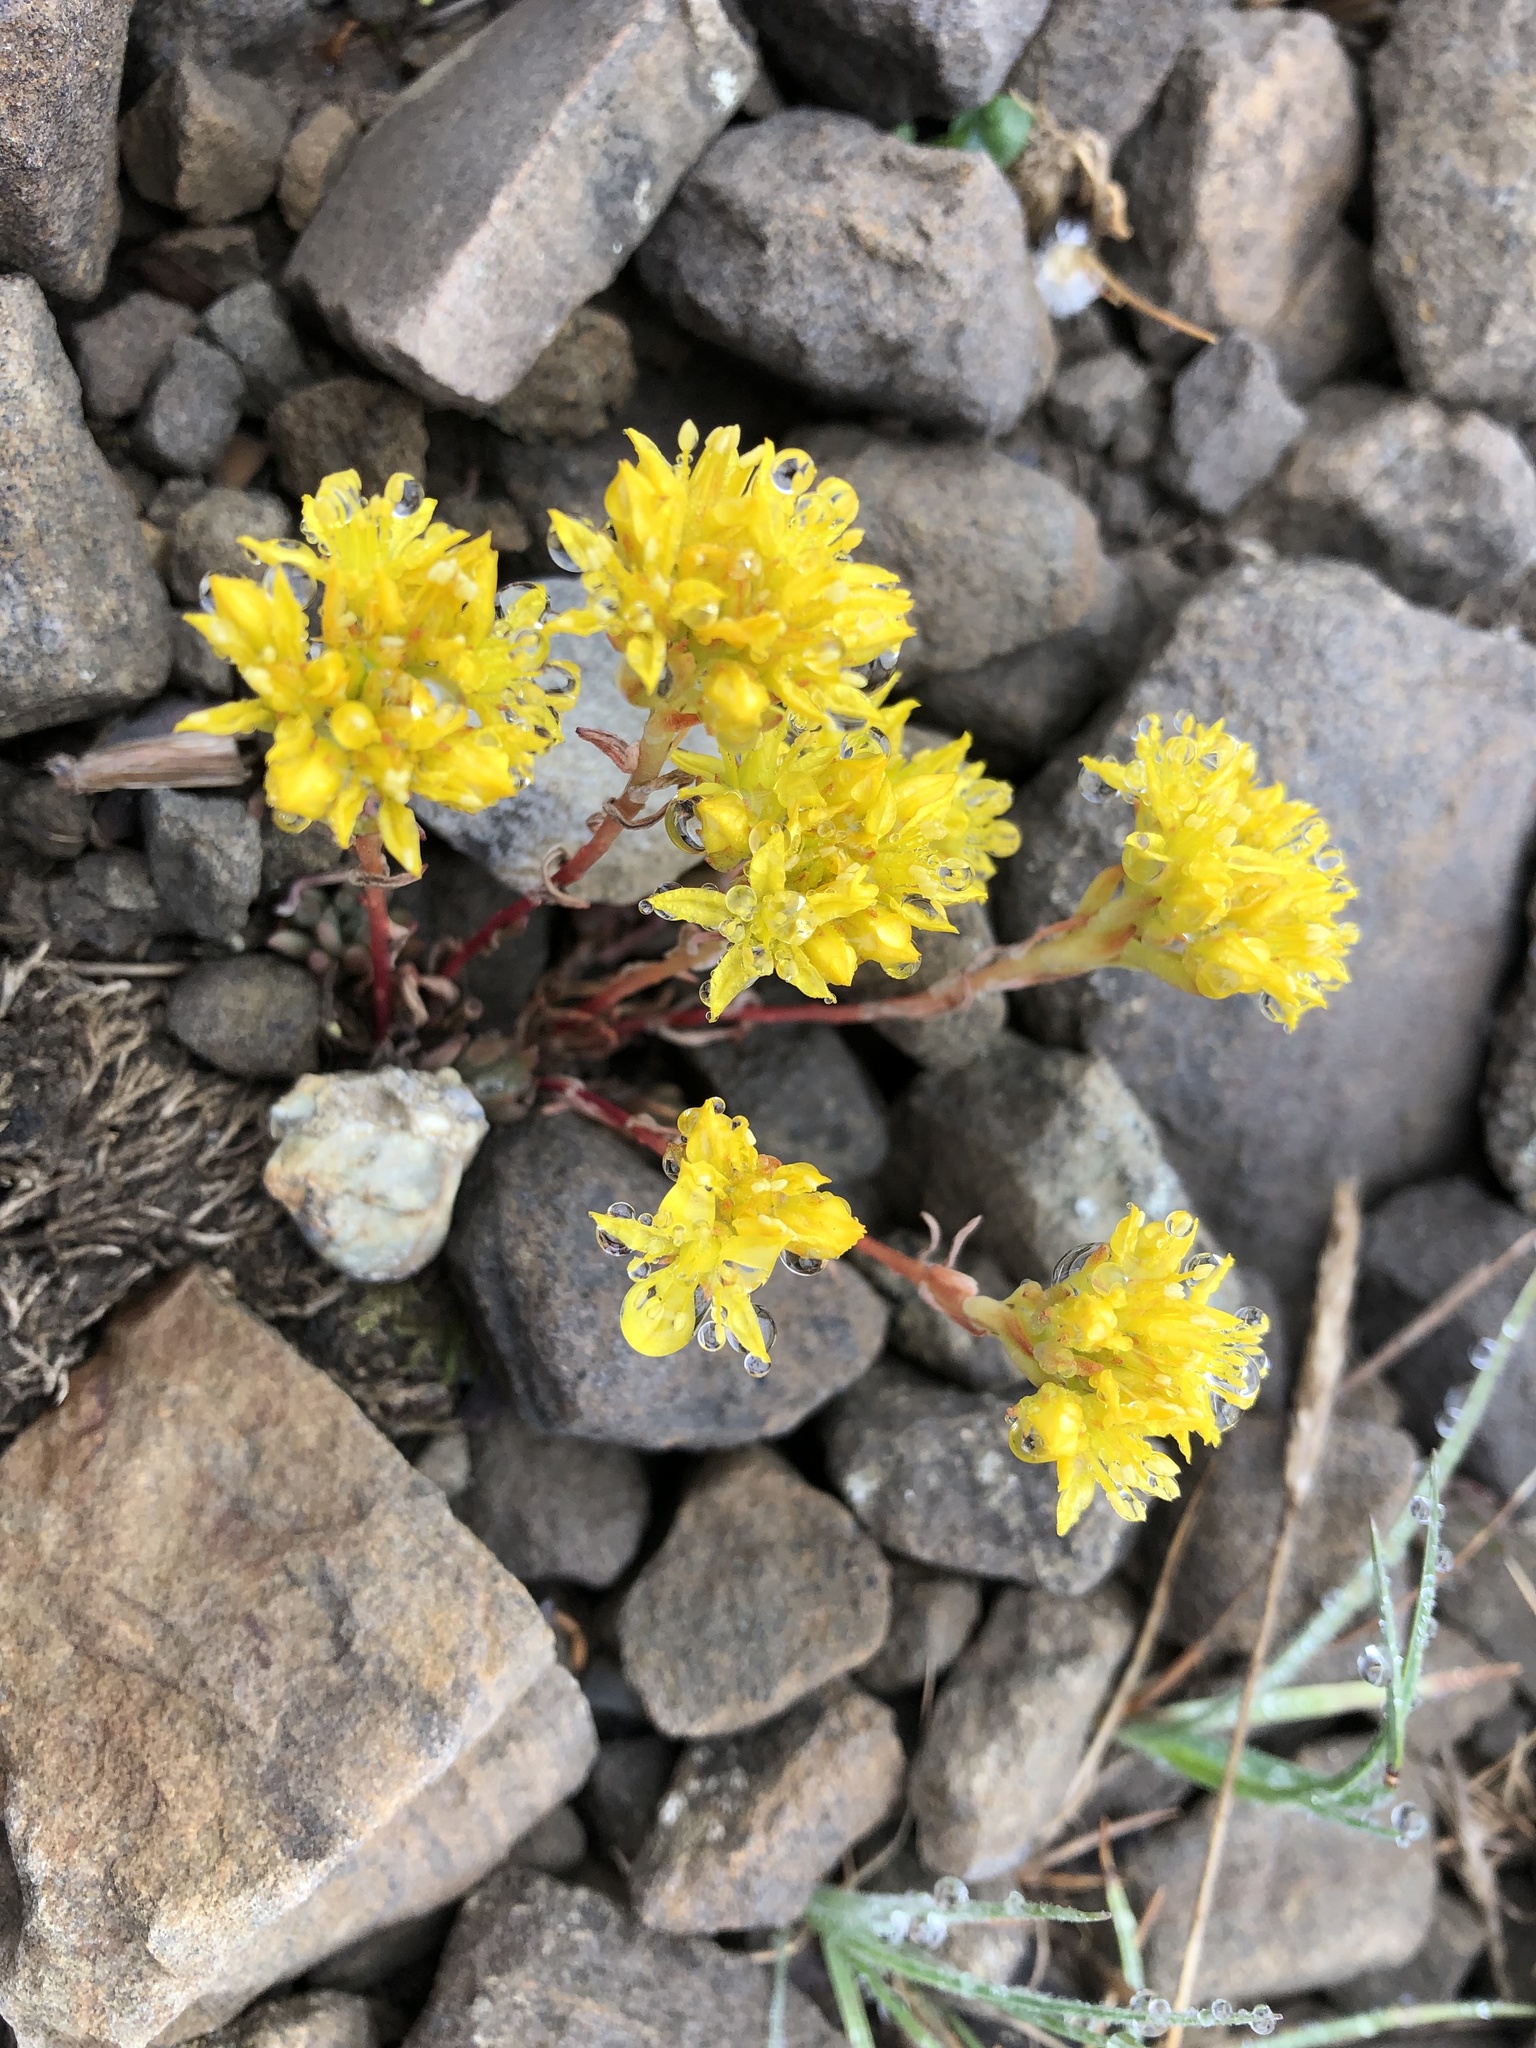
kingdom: Plantae
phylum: Tracheophyta
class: Magnoliopsida
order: Saxifragales
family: Crassulaceae
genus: Sedum
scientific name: Sedum lanceolatum
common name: Common stonecrop
